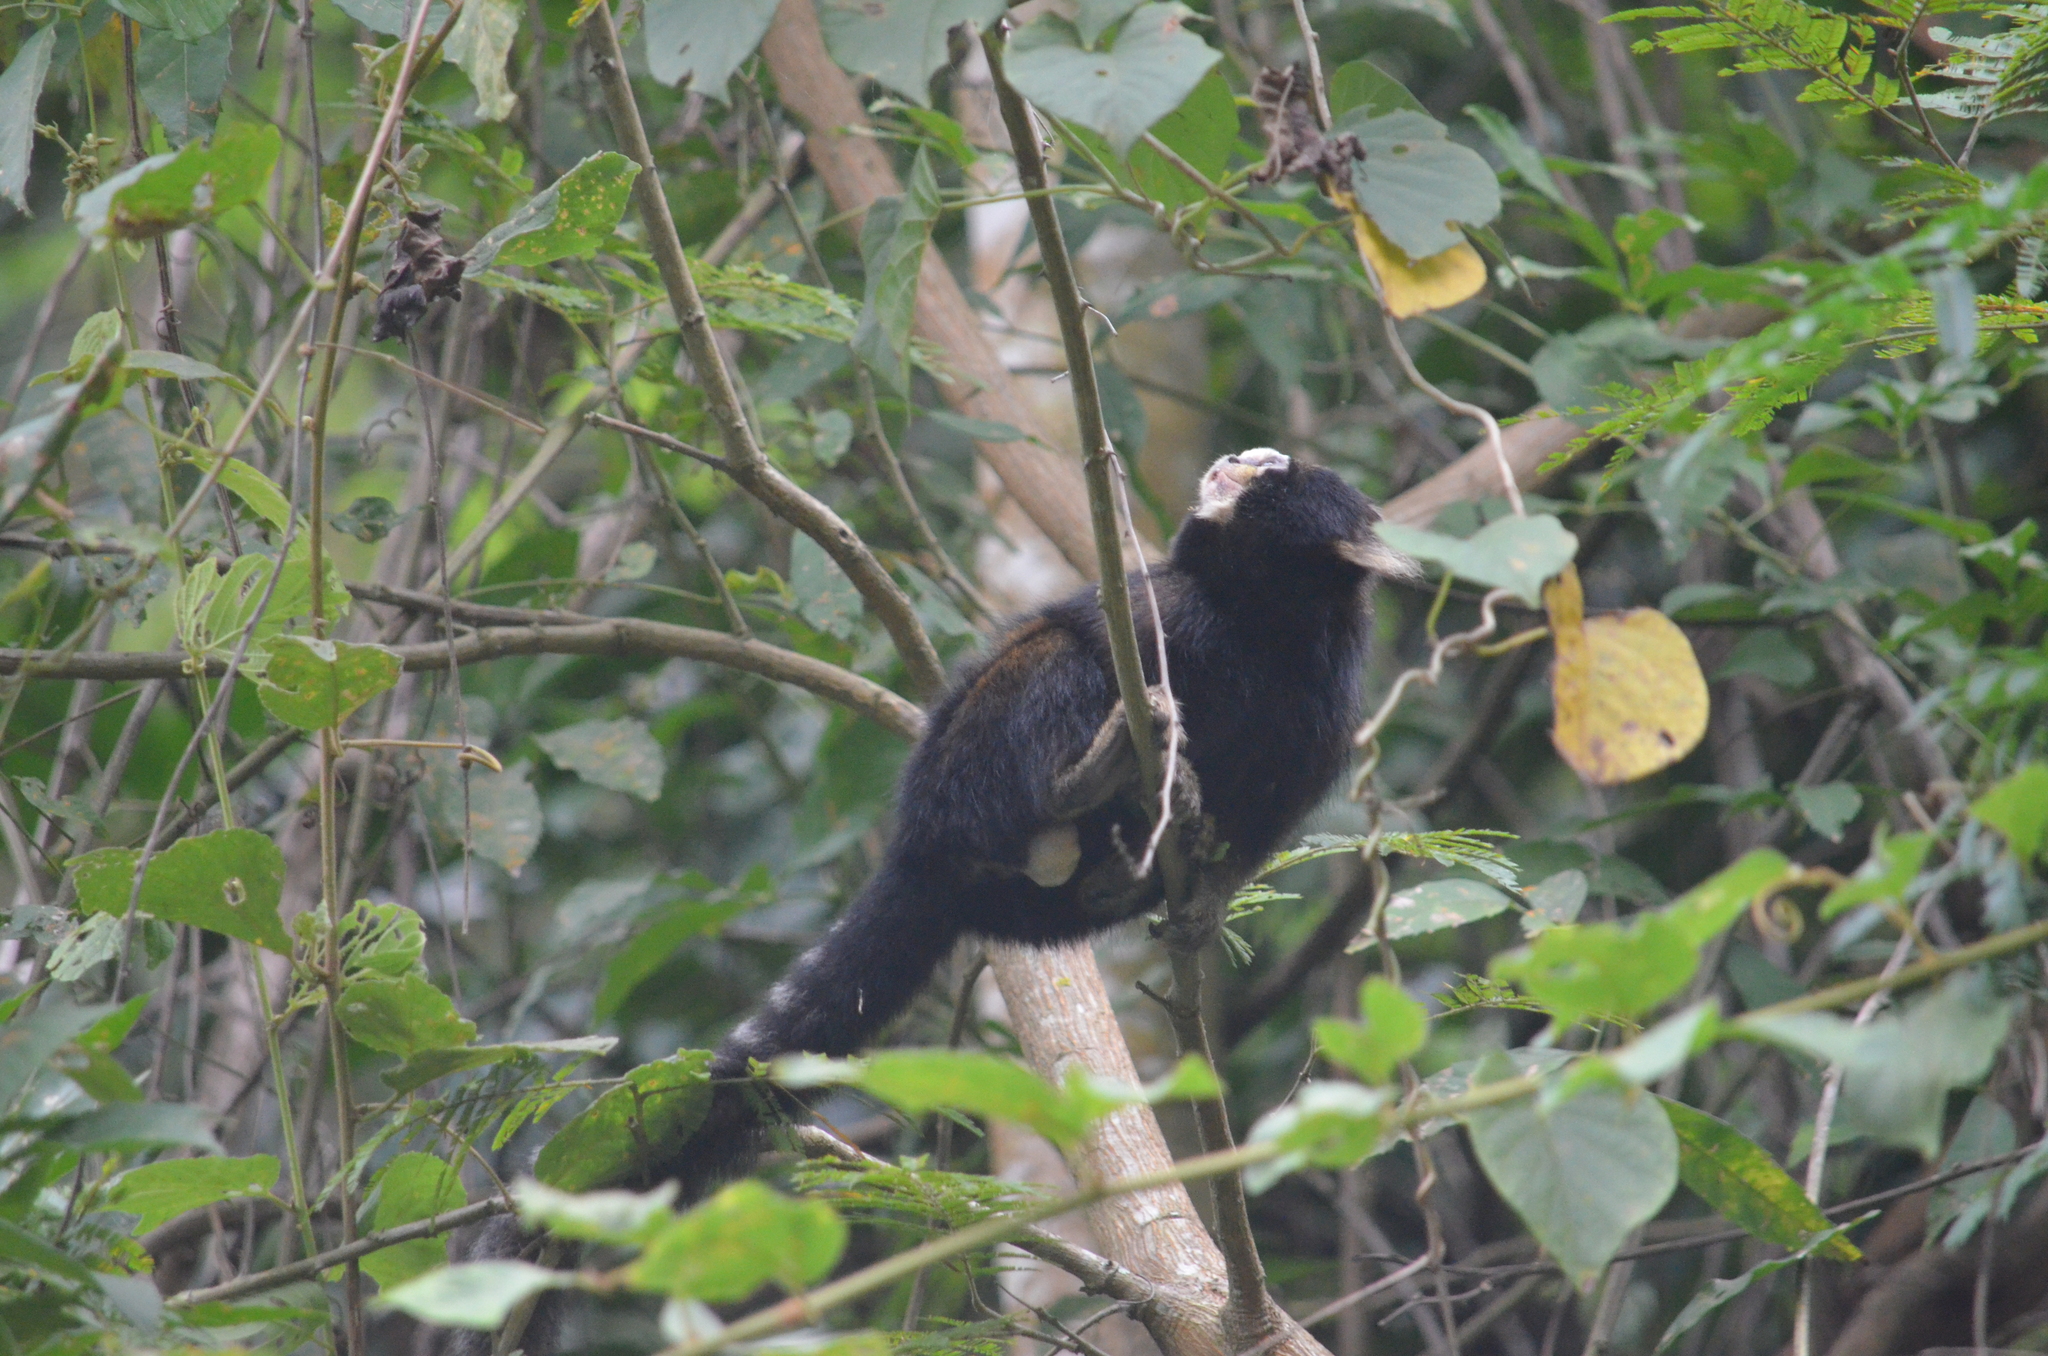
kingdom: Animalia
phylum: Chordata
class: Mammalia
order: Primates
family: Callitrichidae
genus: Callithrix
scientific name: Callithrix aurita
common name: Buffy-tufted marmoset
